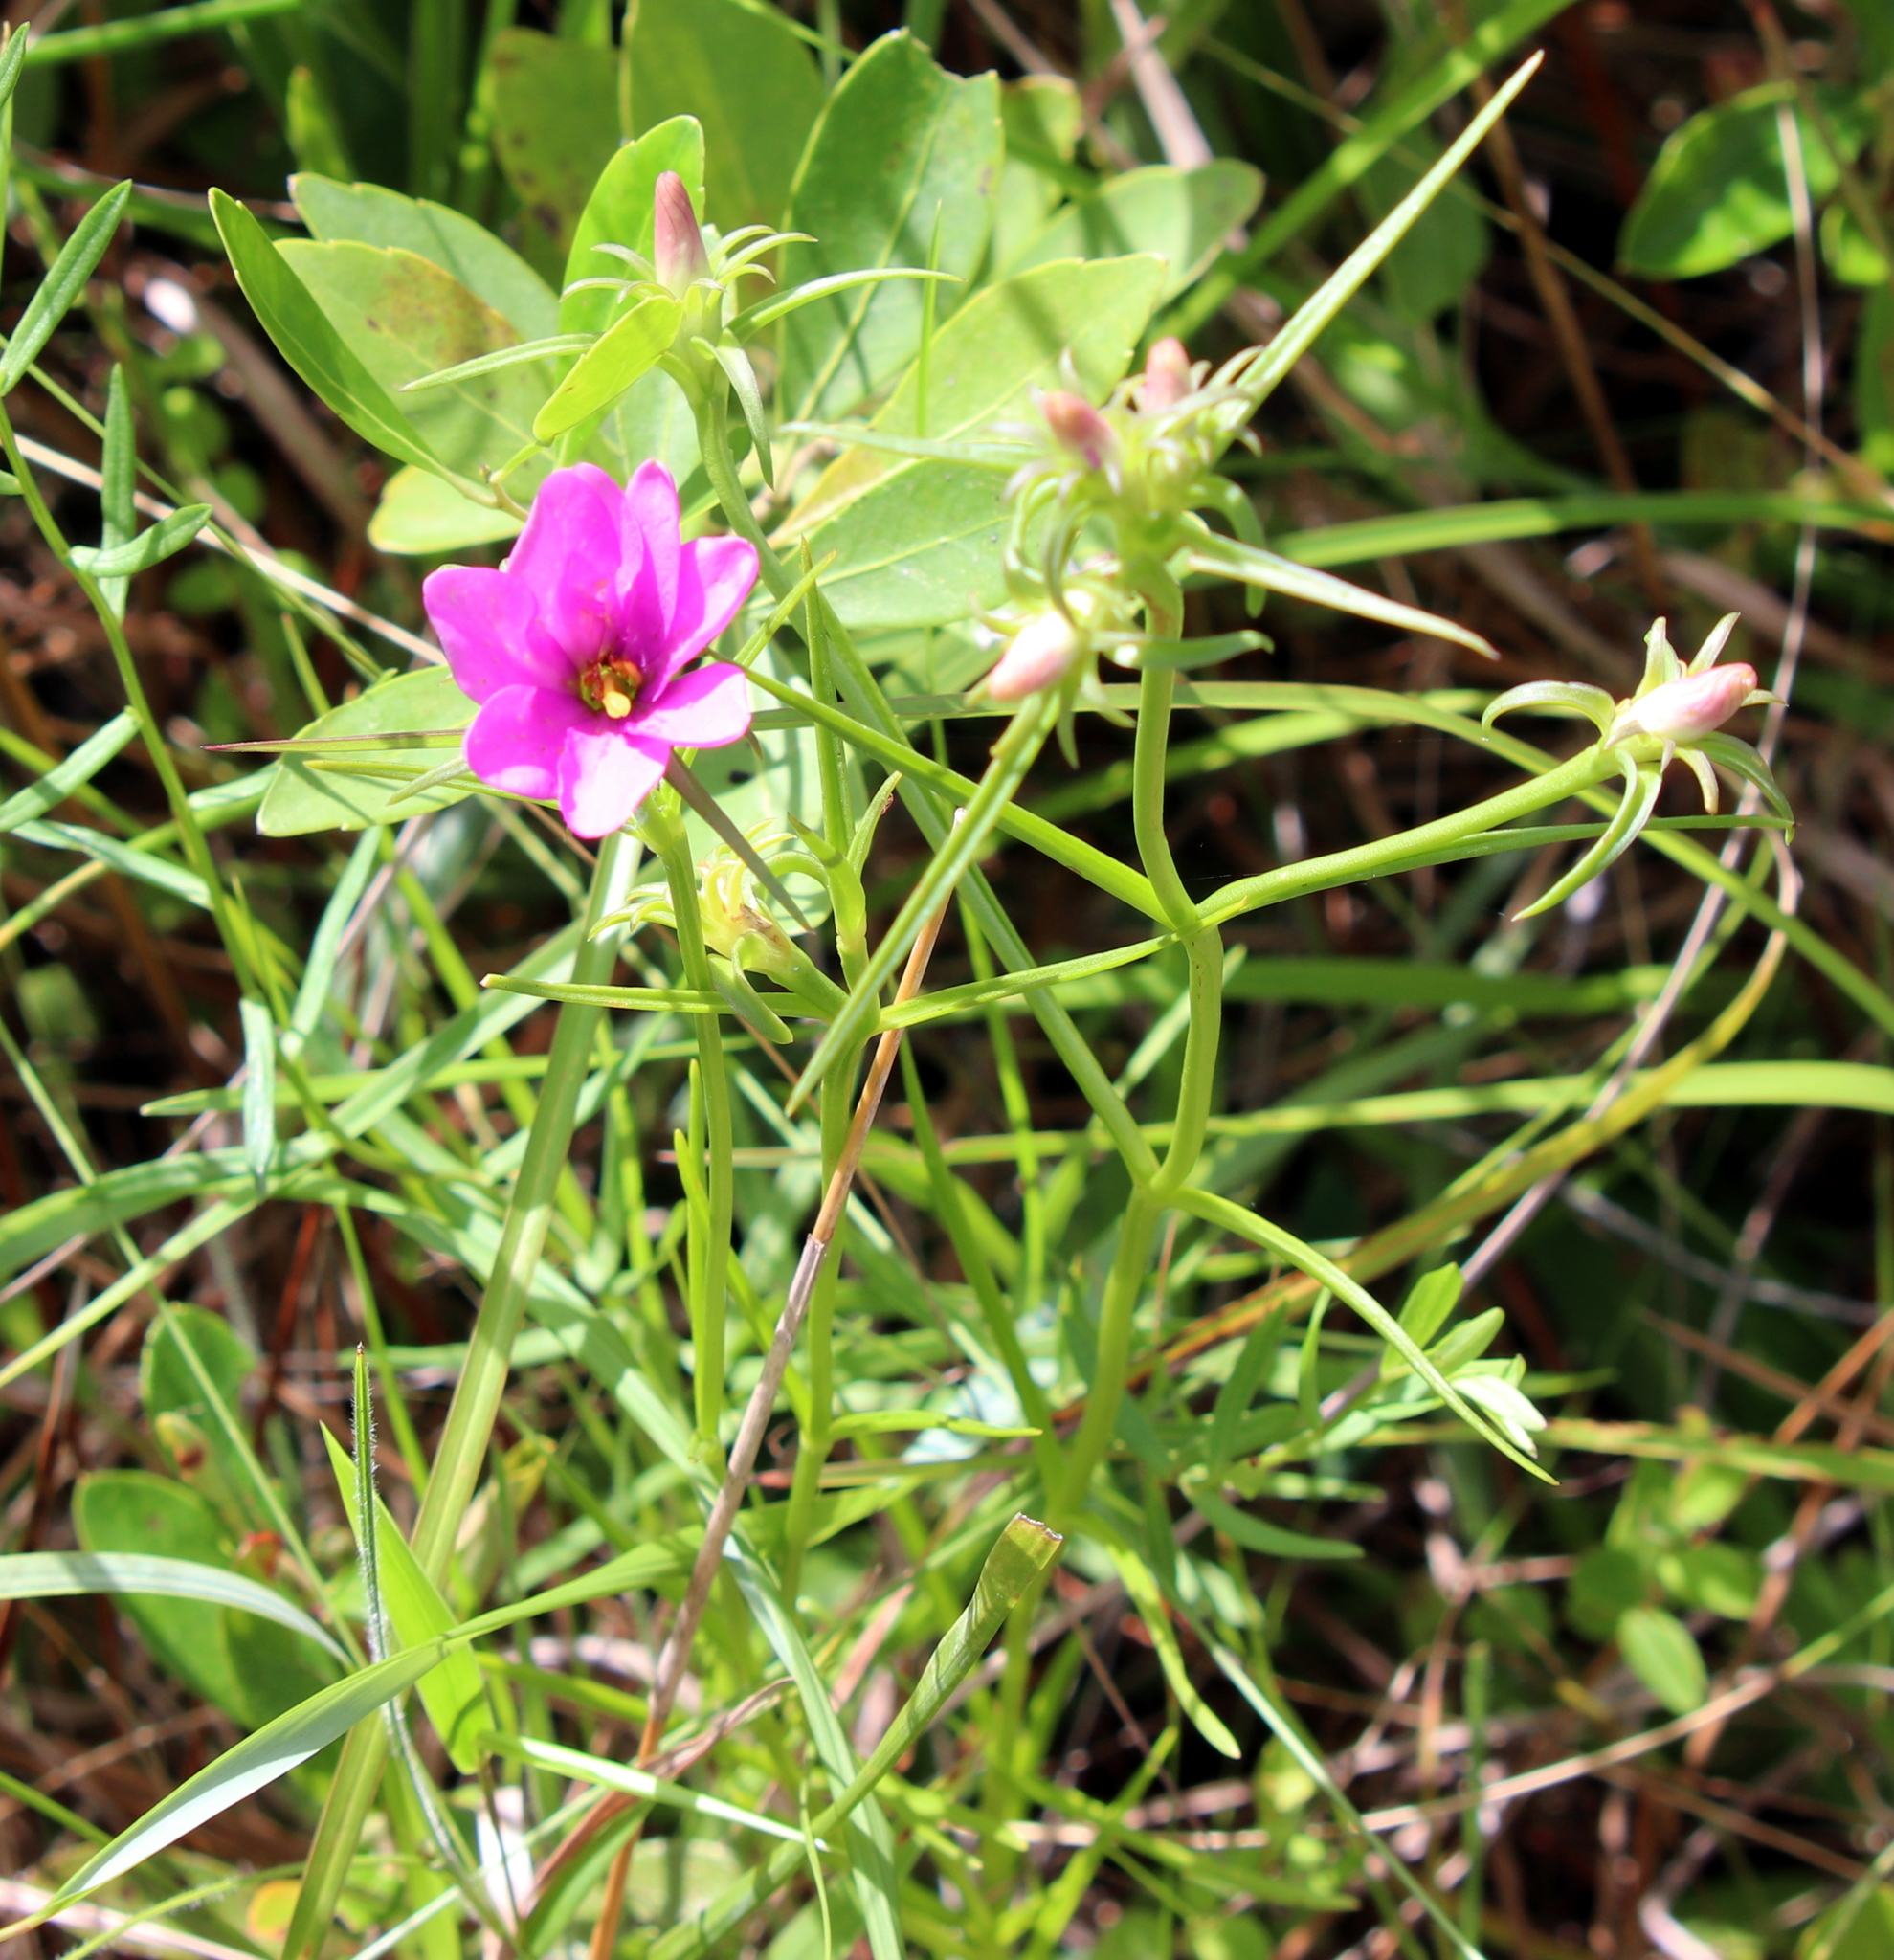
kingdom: Plantae
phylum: Tracheophyta
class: Magnoliopsida
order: Gentianales
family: Gentianaceae
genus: Sabatia
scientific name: Sabatia gentianoides
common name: Pinewoods rose-gentian
